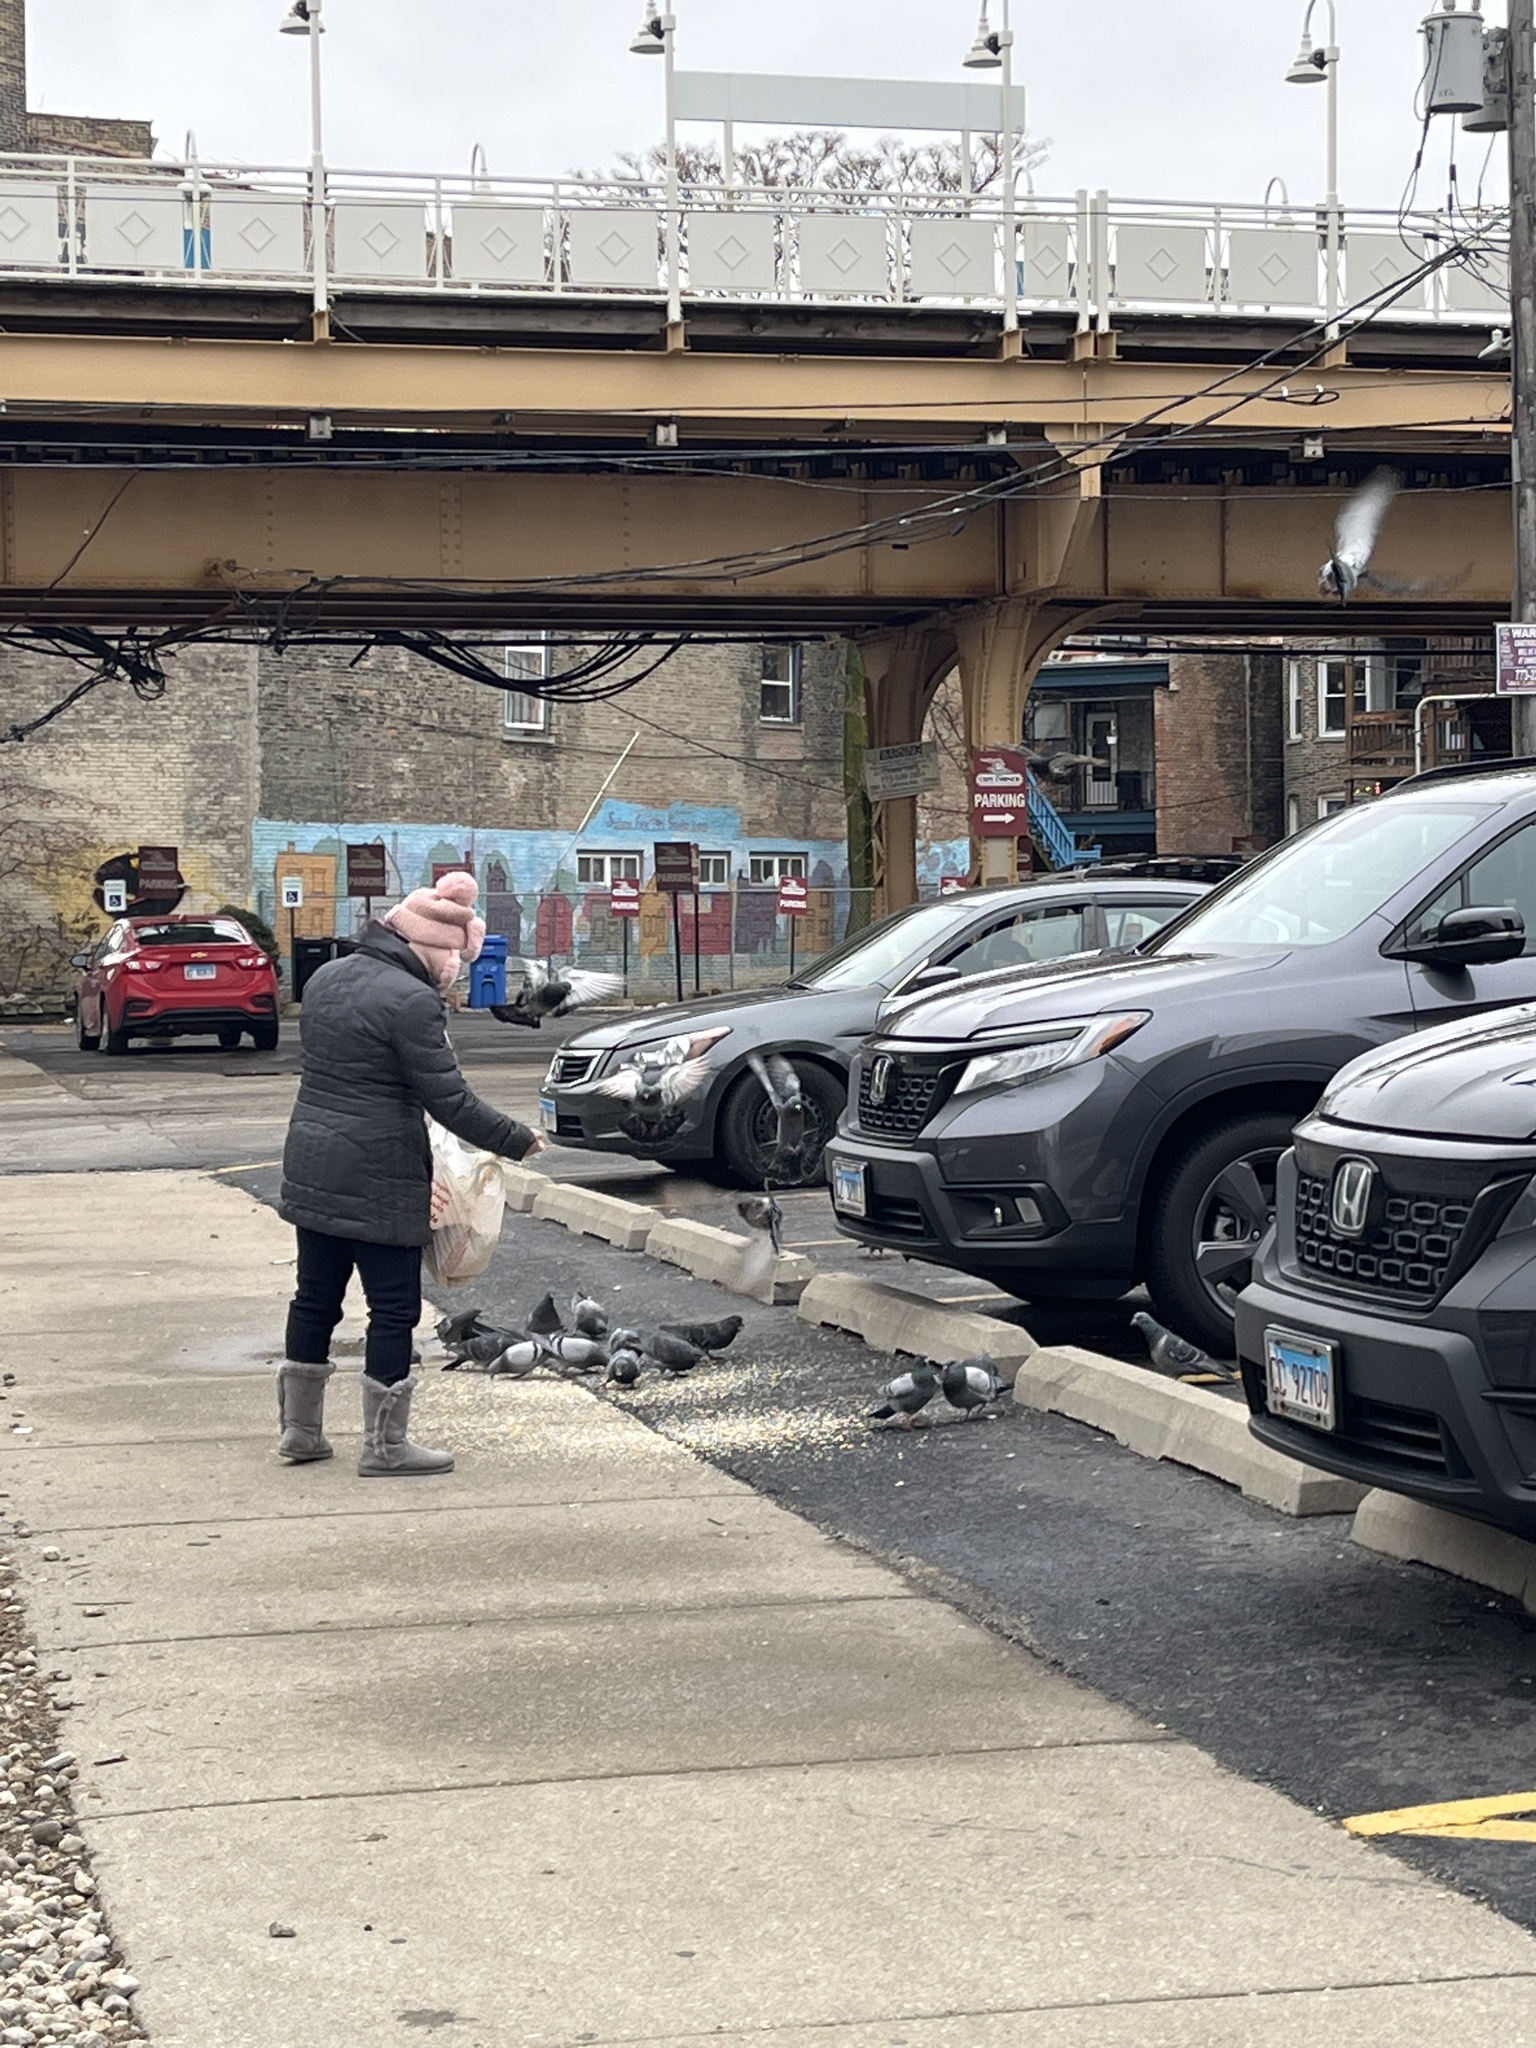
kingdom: Animalia
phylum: Chordata
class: Aves
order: Columbiformes
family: Columbidae
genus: Columba
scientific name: Columba livia
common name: Rock pigeon
